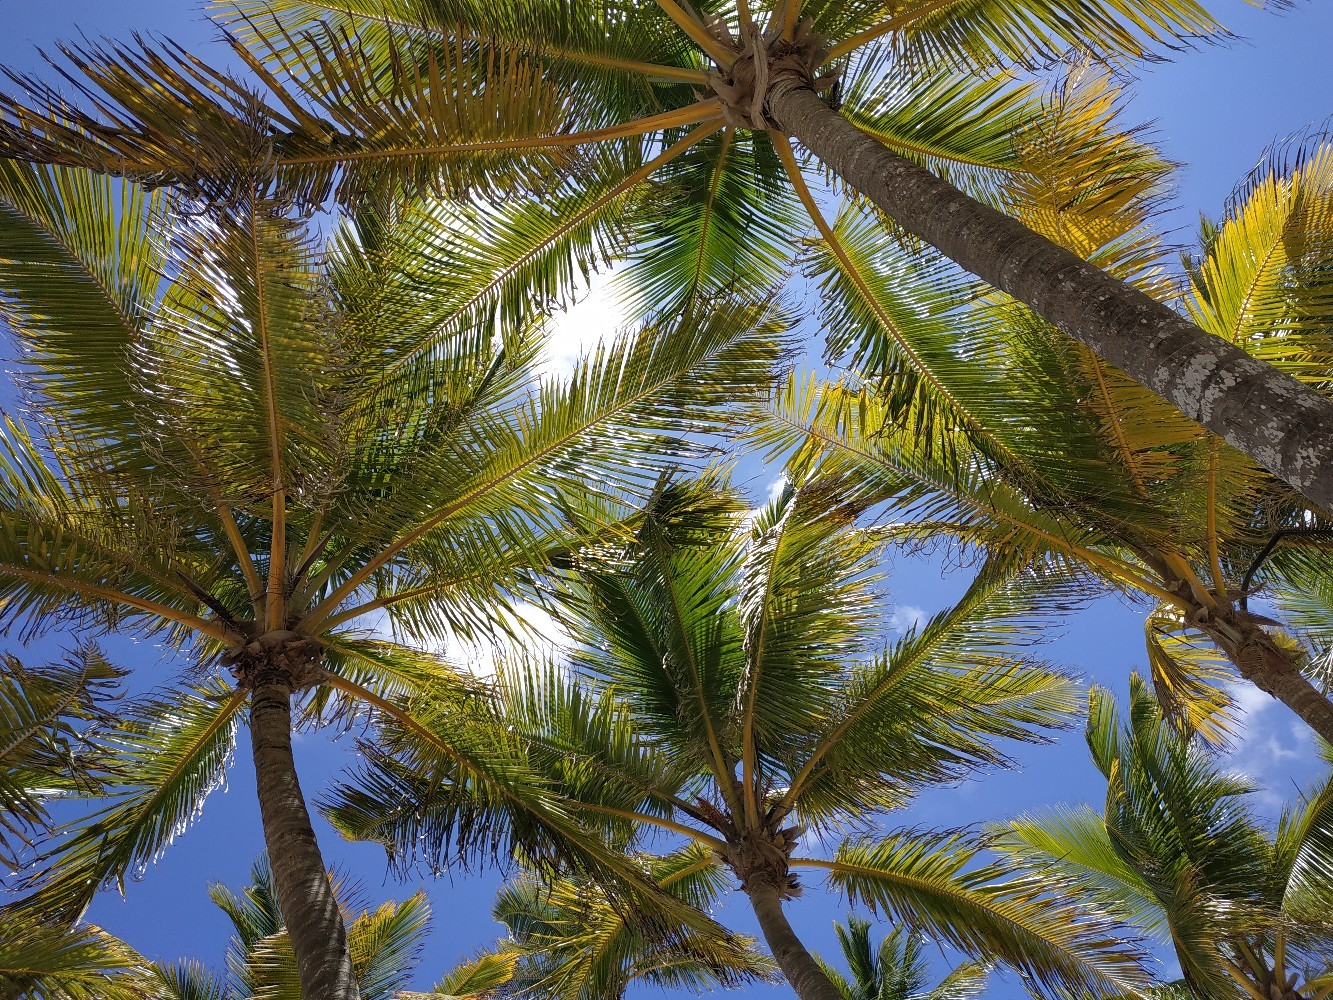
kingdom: Plantae
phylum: Tracheophyta
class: Liliopsida
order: Arecales
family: Arecaceae
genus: Cocos
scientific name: Cocos nucifera
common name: Coconut palm
